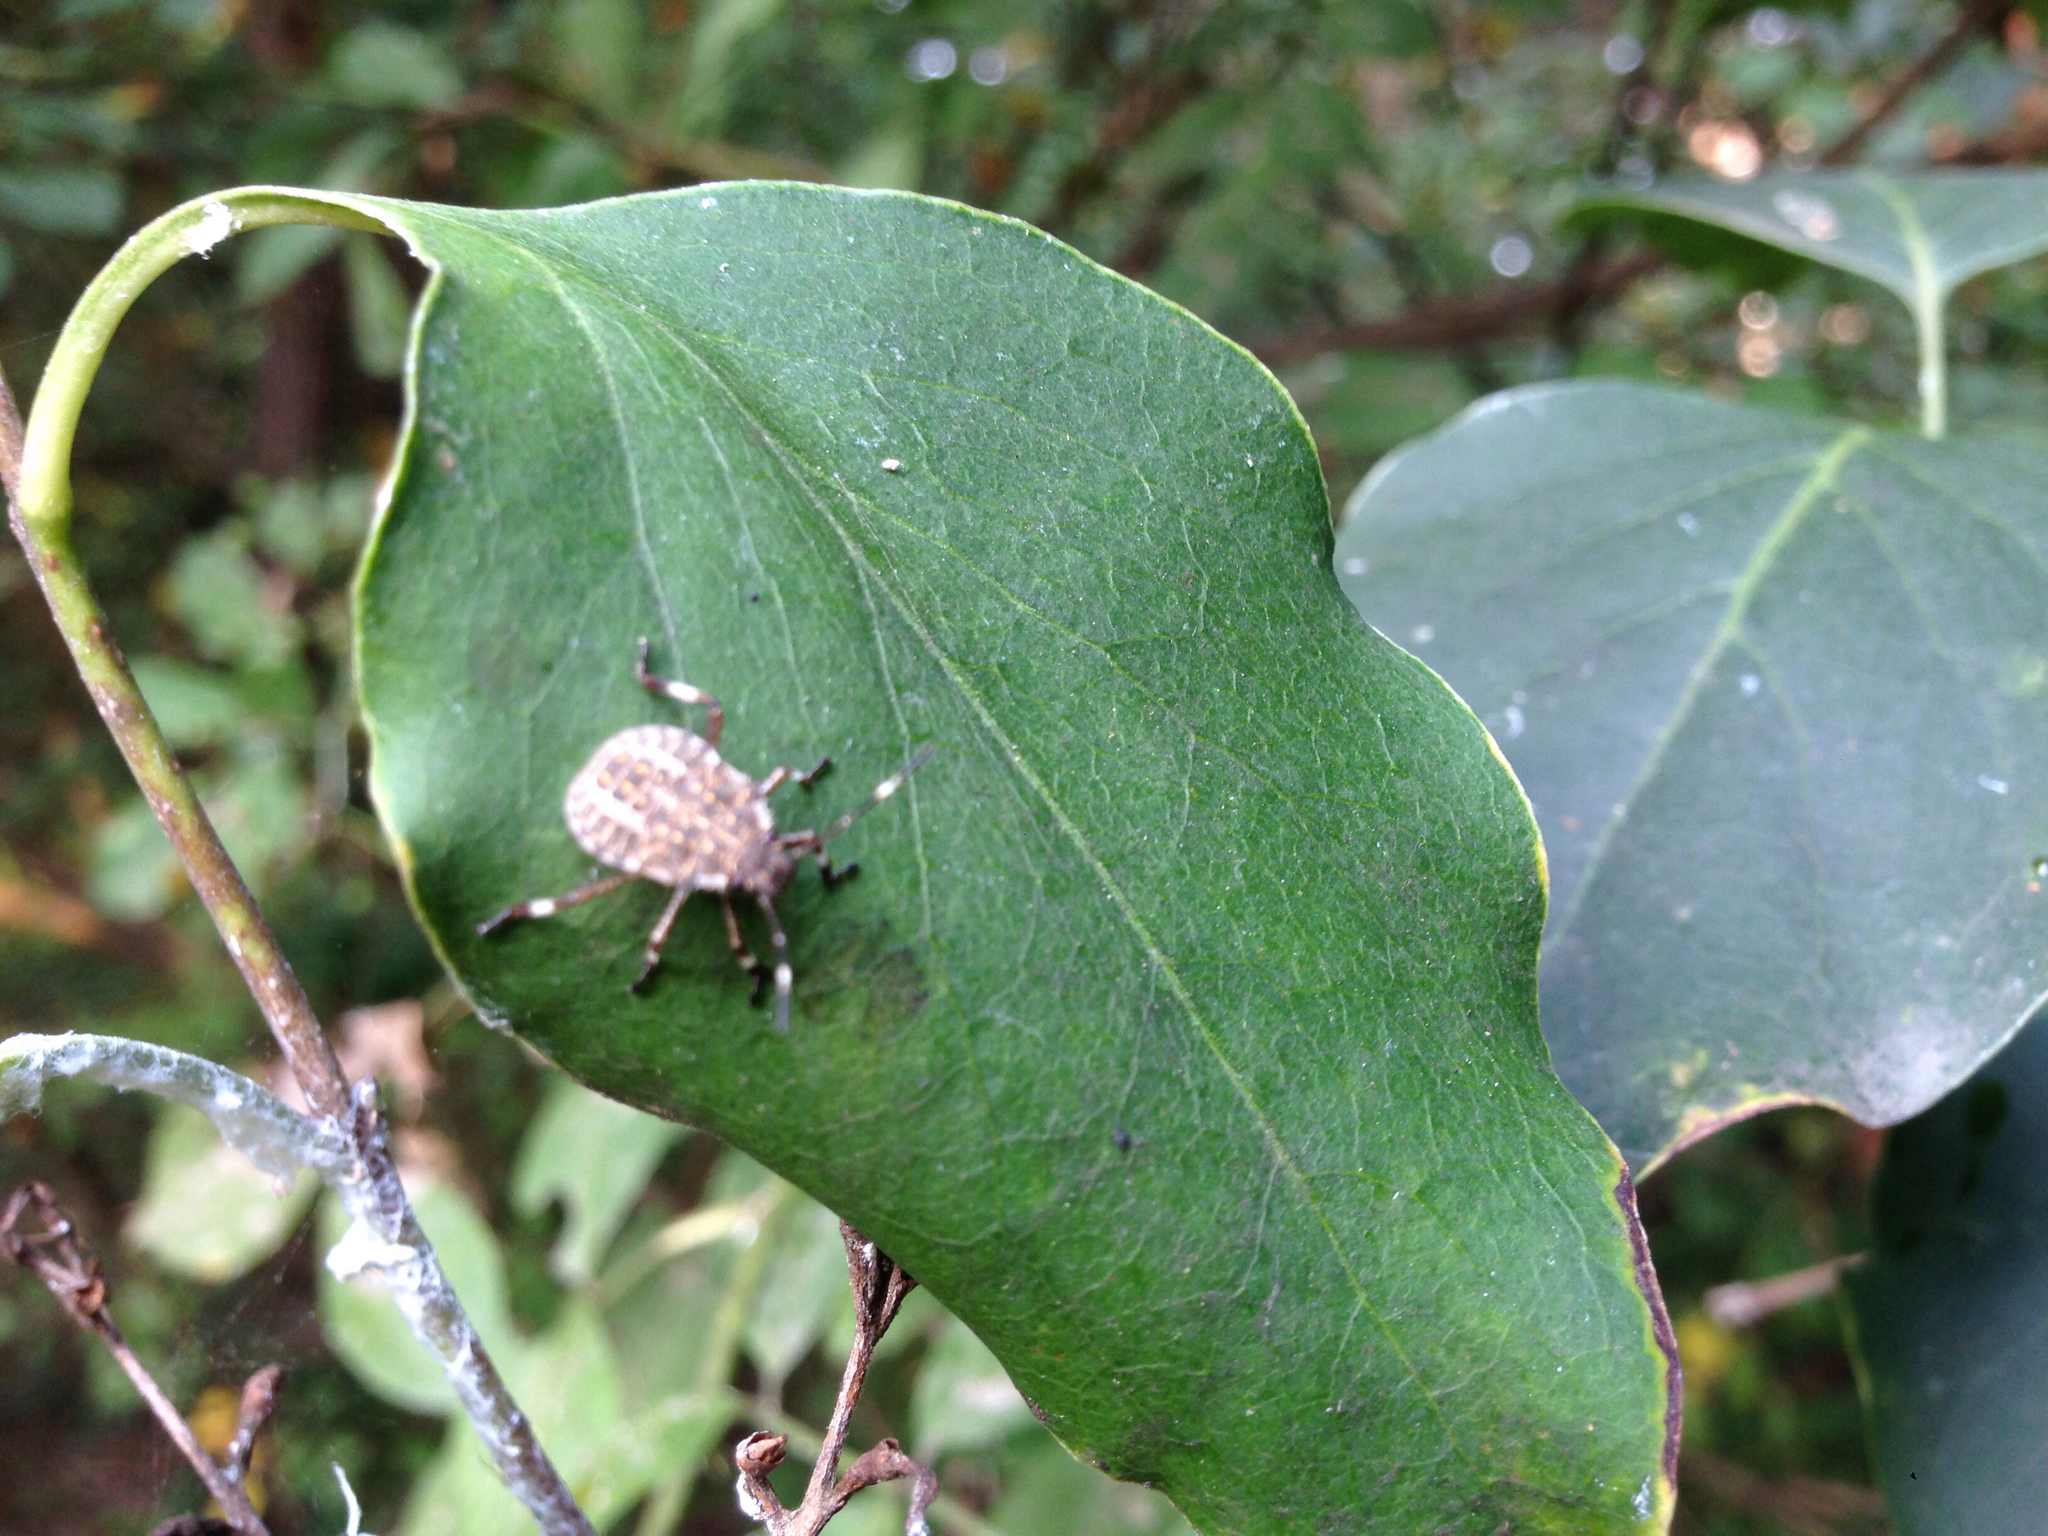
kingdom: Animalia
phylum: Arthropoda
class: Insecta
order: Hemiptera
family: Pentatomidae
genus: Halyomorpha
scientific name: Halyomorpha halys
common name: Brown marmorated stink bug
